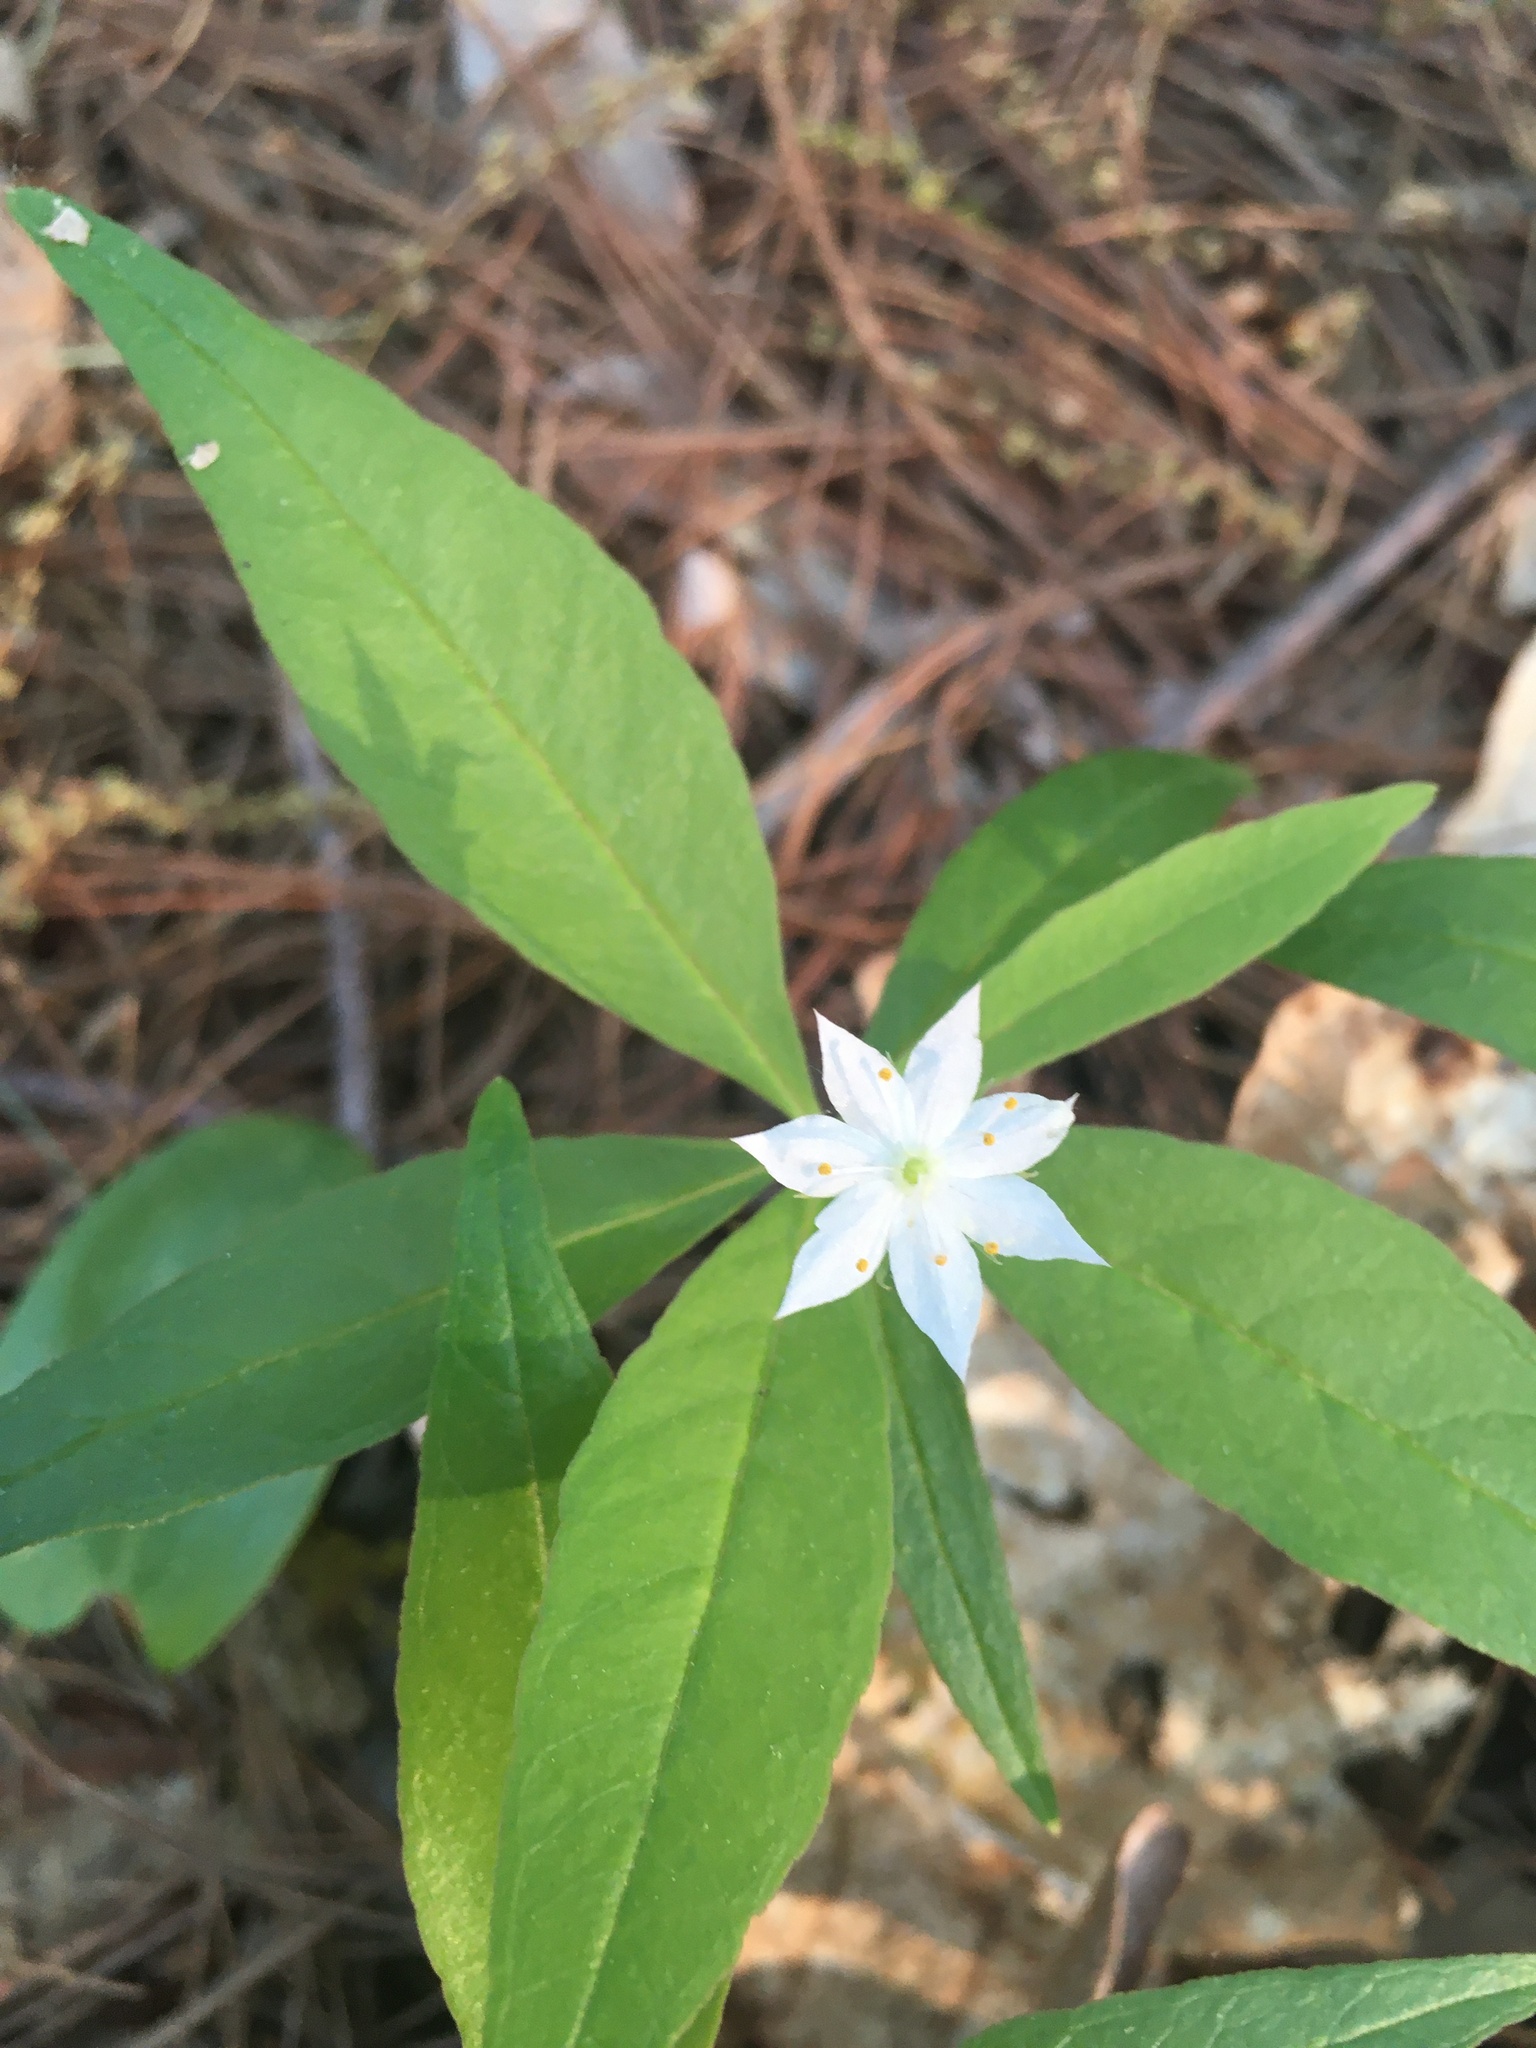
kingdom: Plantae
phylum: Tracheophyta
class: Magnoliopsida
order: Ericales
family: Primulaceae
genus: Lysimachia
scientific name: Lysimachia borealis
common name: American starflower
